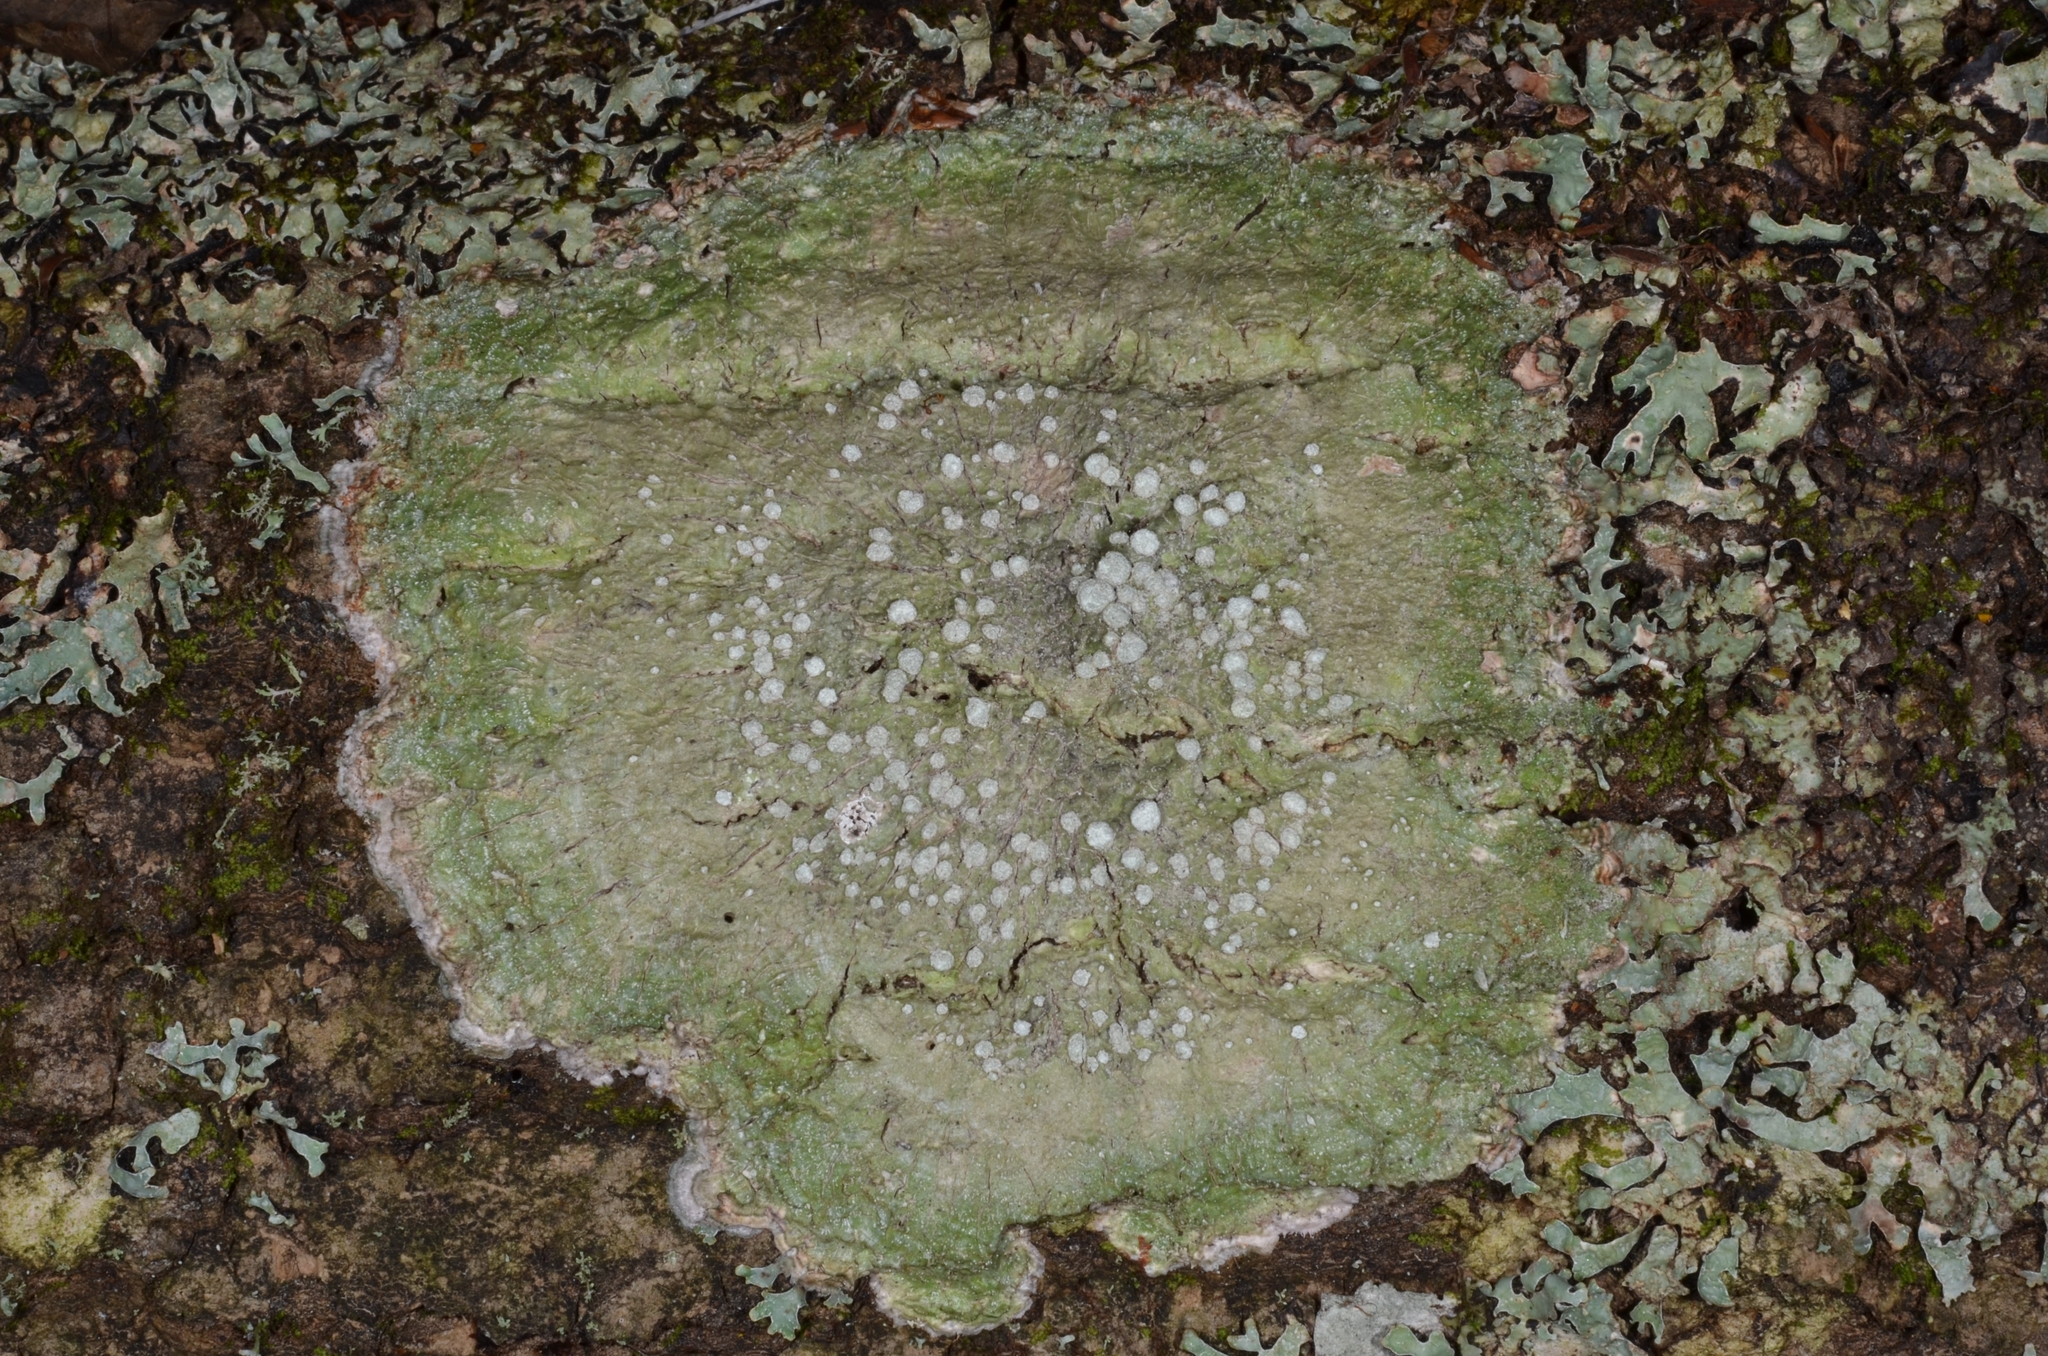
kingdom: Fungi
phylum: Ascomycota
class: Lecanoromycetes
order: Pertusariales
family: Pertusariaceae
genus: Lepra
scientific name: Lepra albescens
